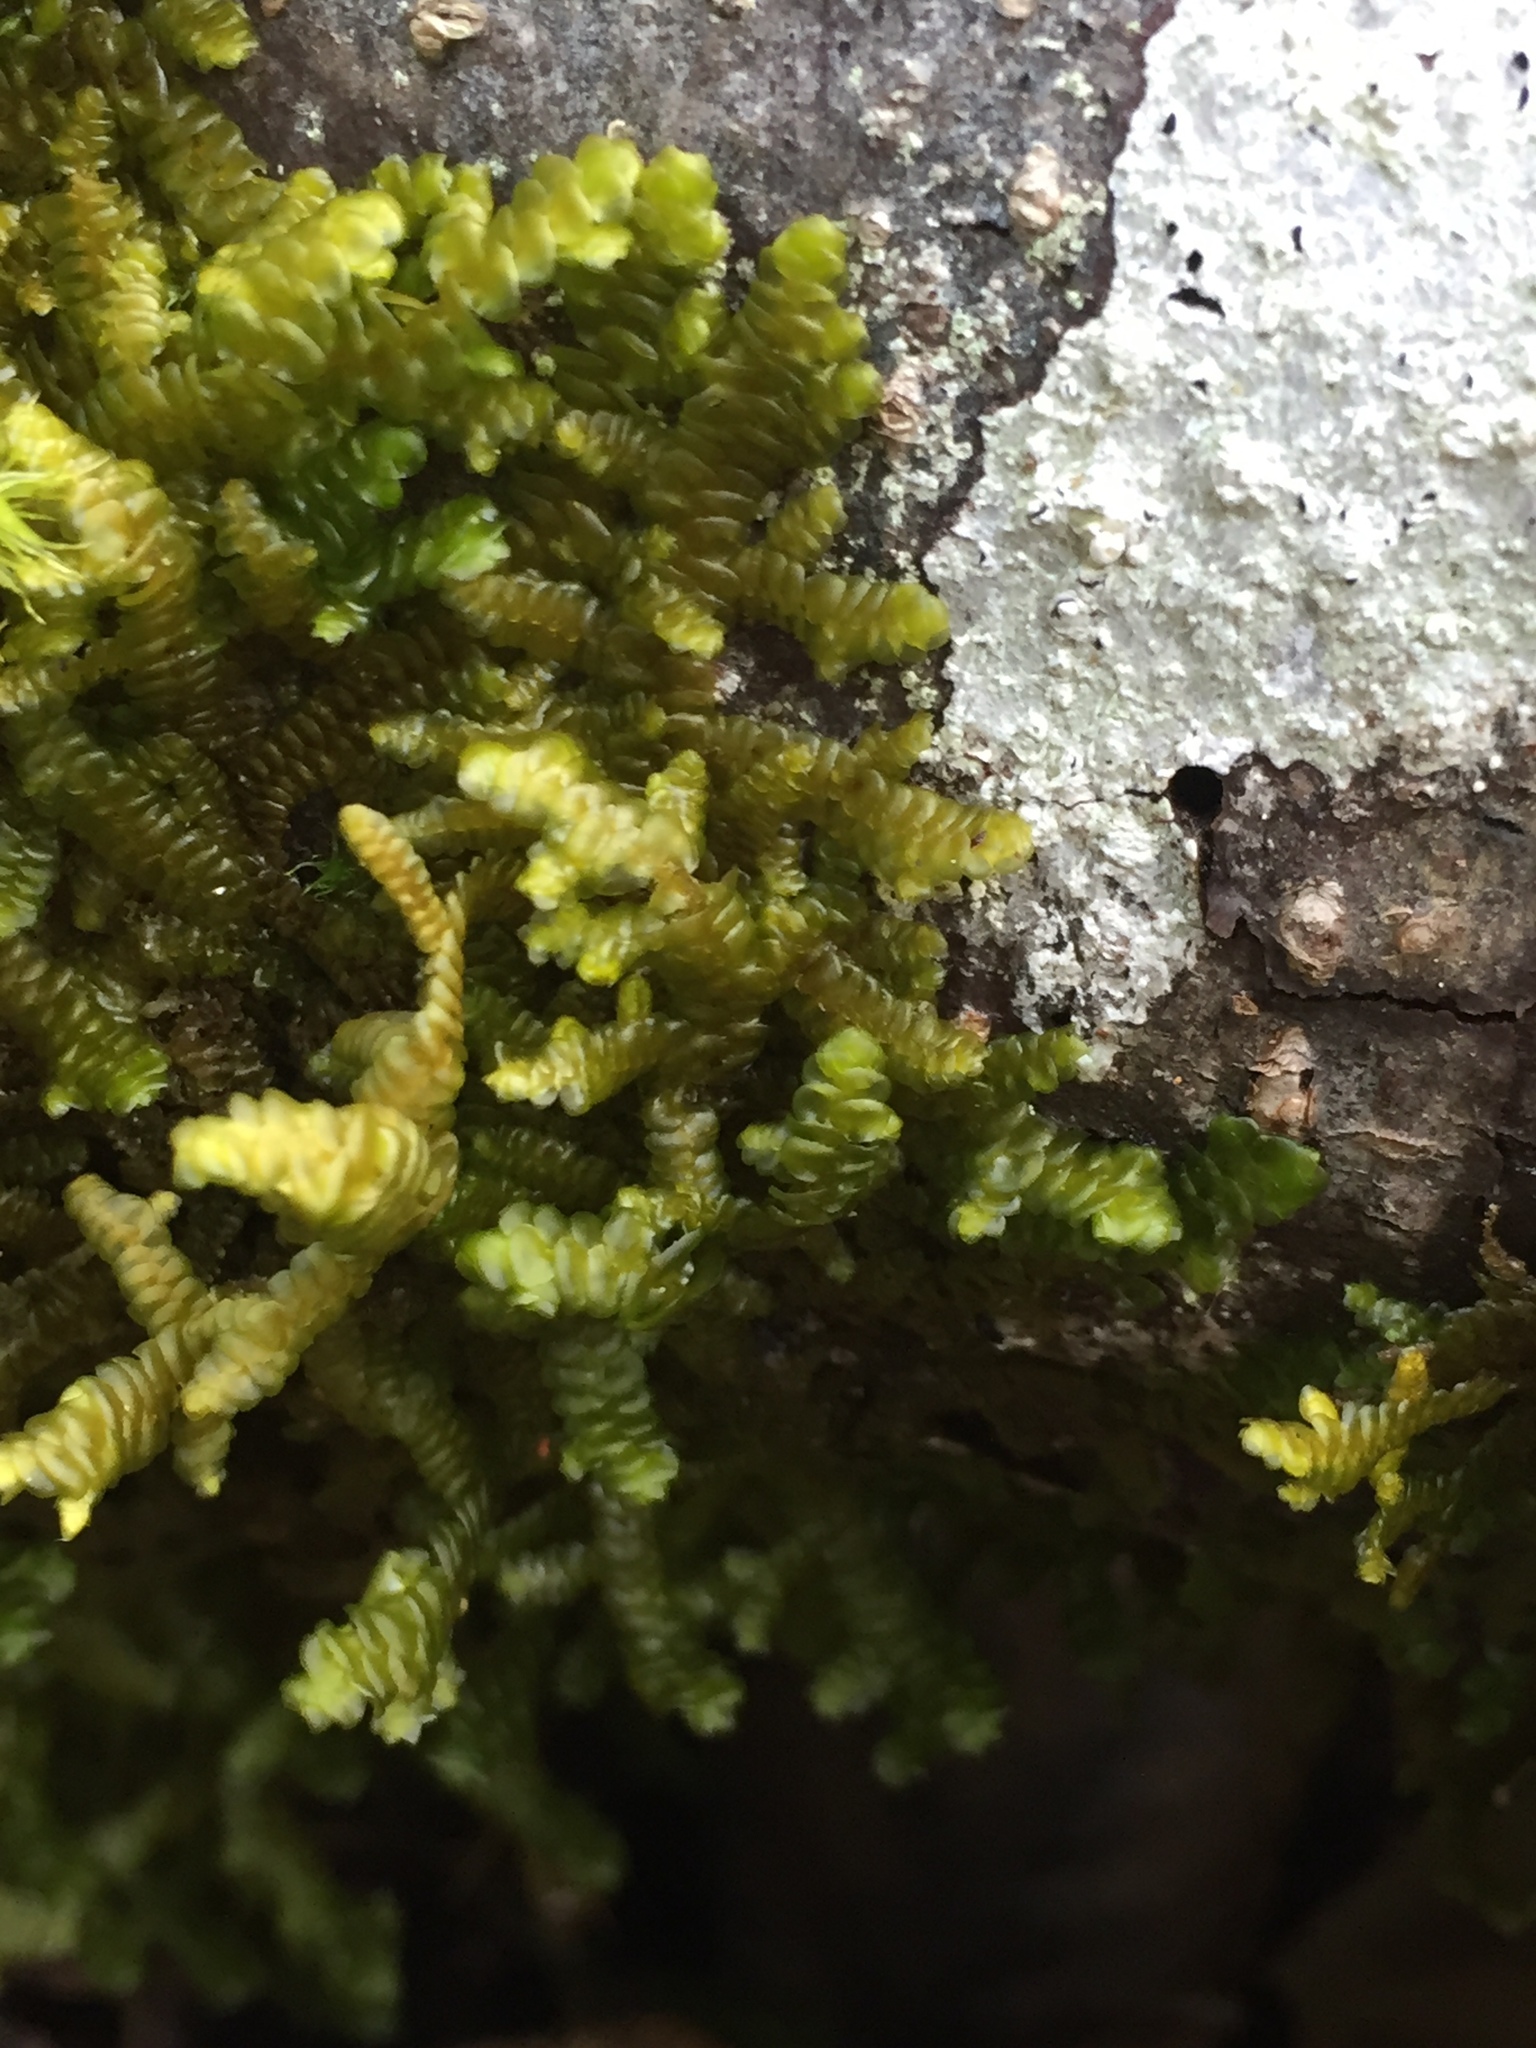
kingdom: Plantae
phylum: Marchantiophyta
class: Jungermanniopsida
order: Porellales
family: Porellaceae
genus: Porella
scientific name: Porella navicularis
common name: Tree ruffle liverwort
